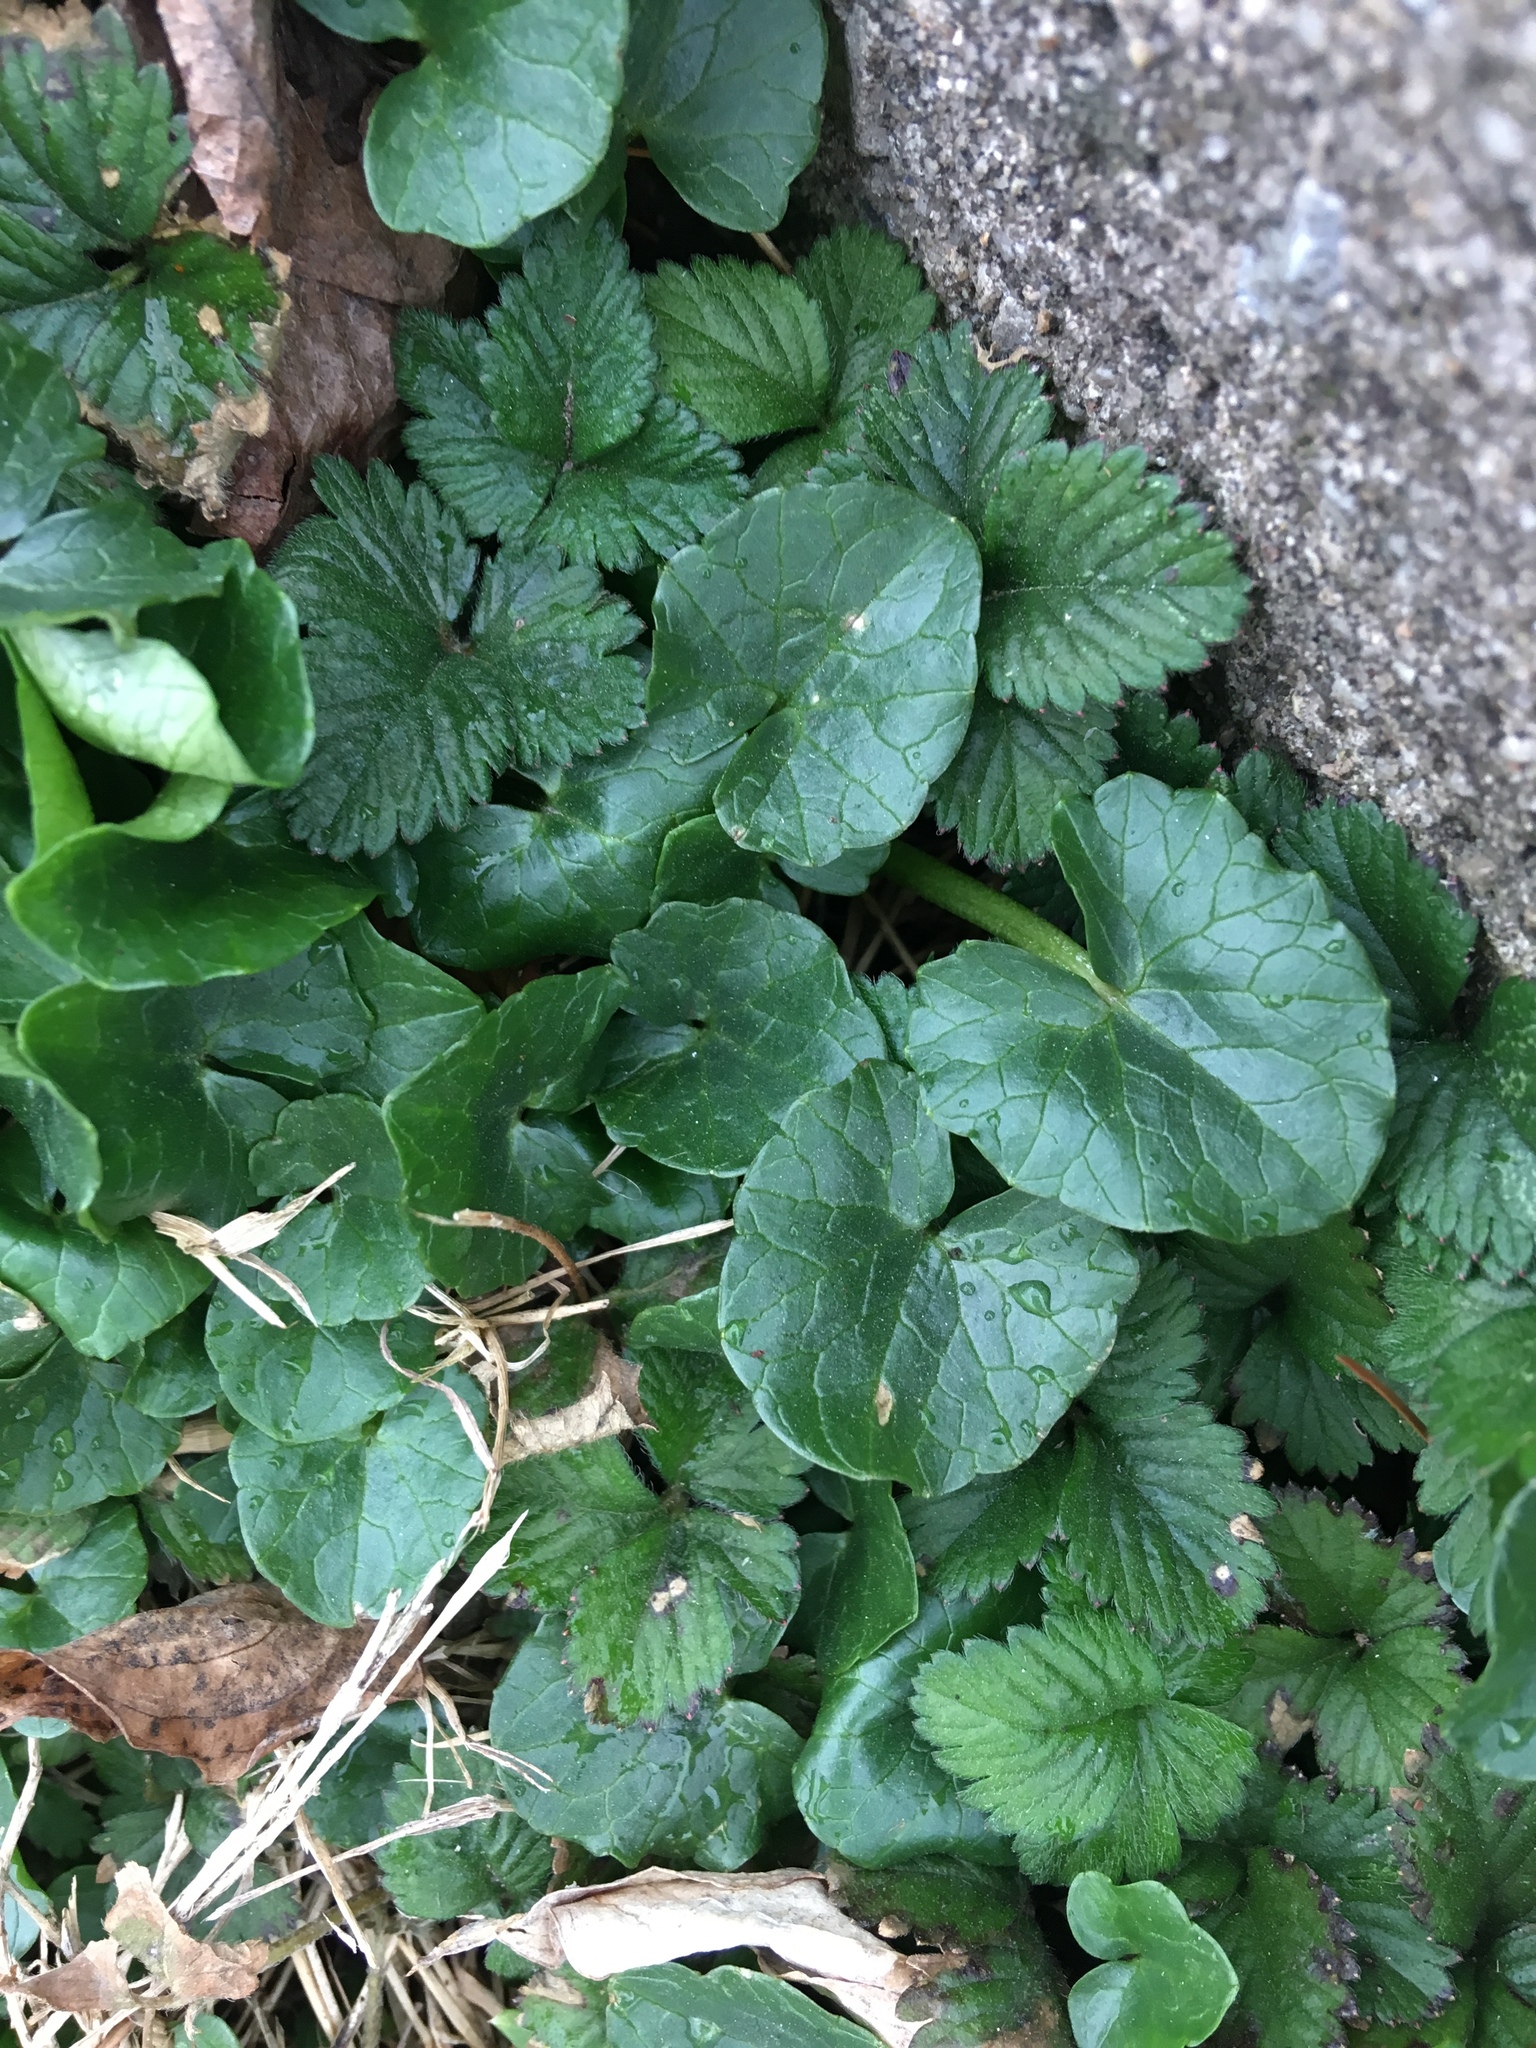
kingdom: Plantae
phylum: Tracheophyta
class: Magnoliopsida
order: Ranunculales
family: Ranunculaceae
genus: Ficaria
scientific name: Ficaria verna
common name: Lesser celandine
